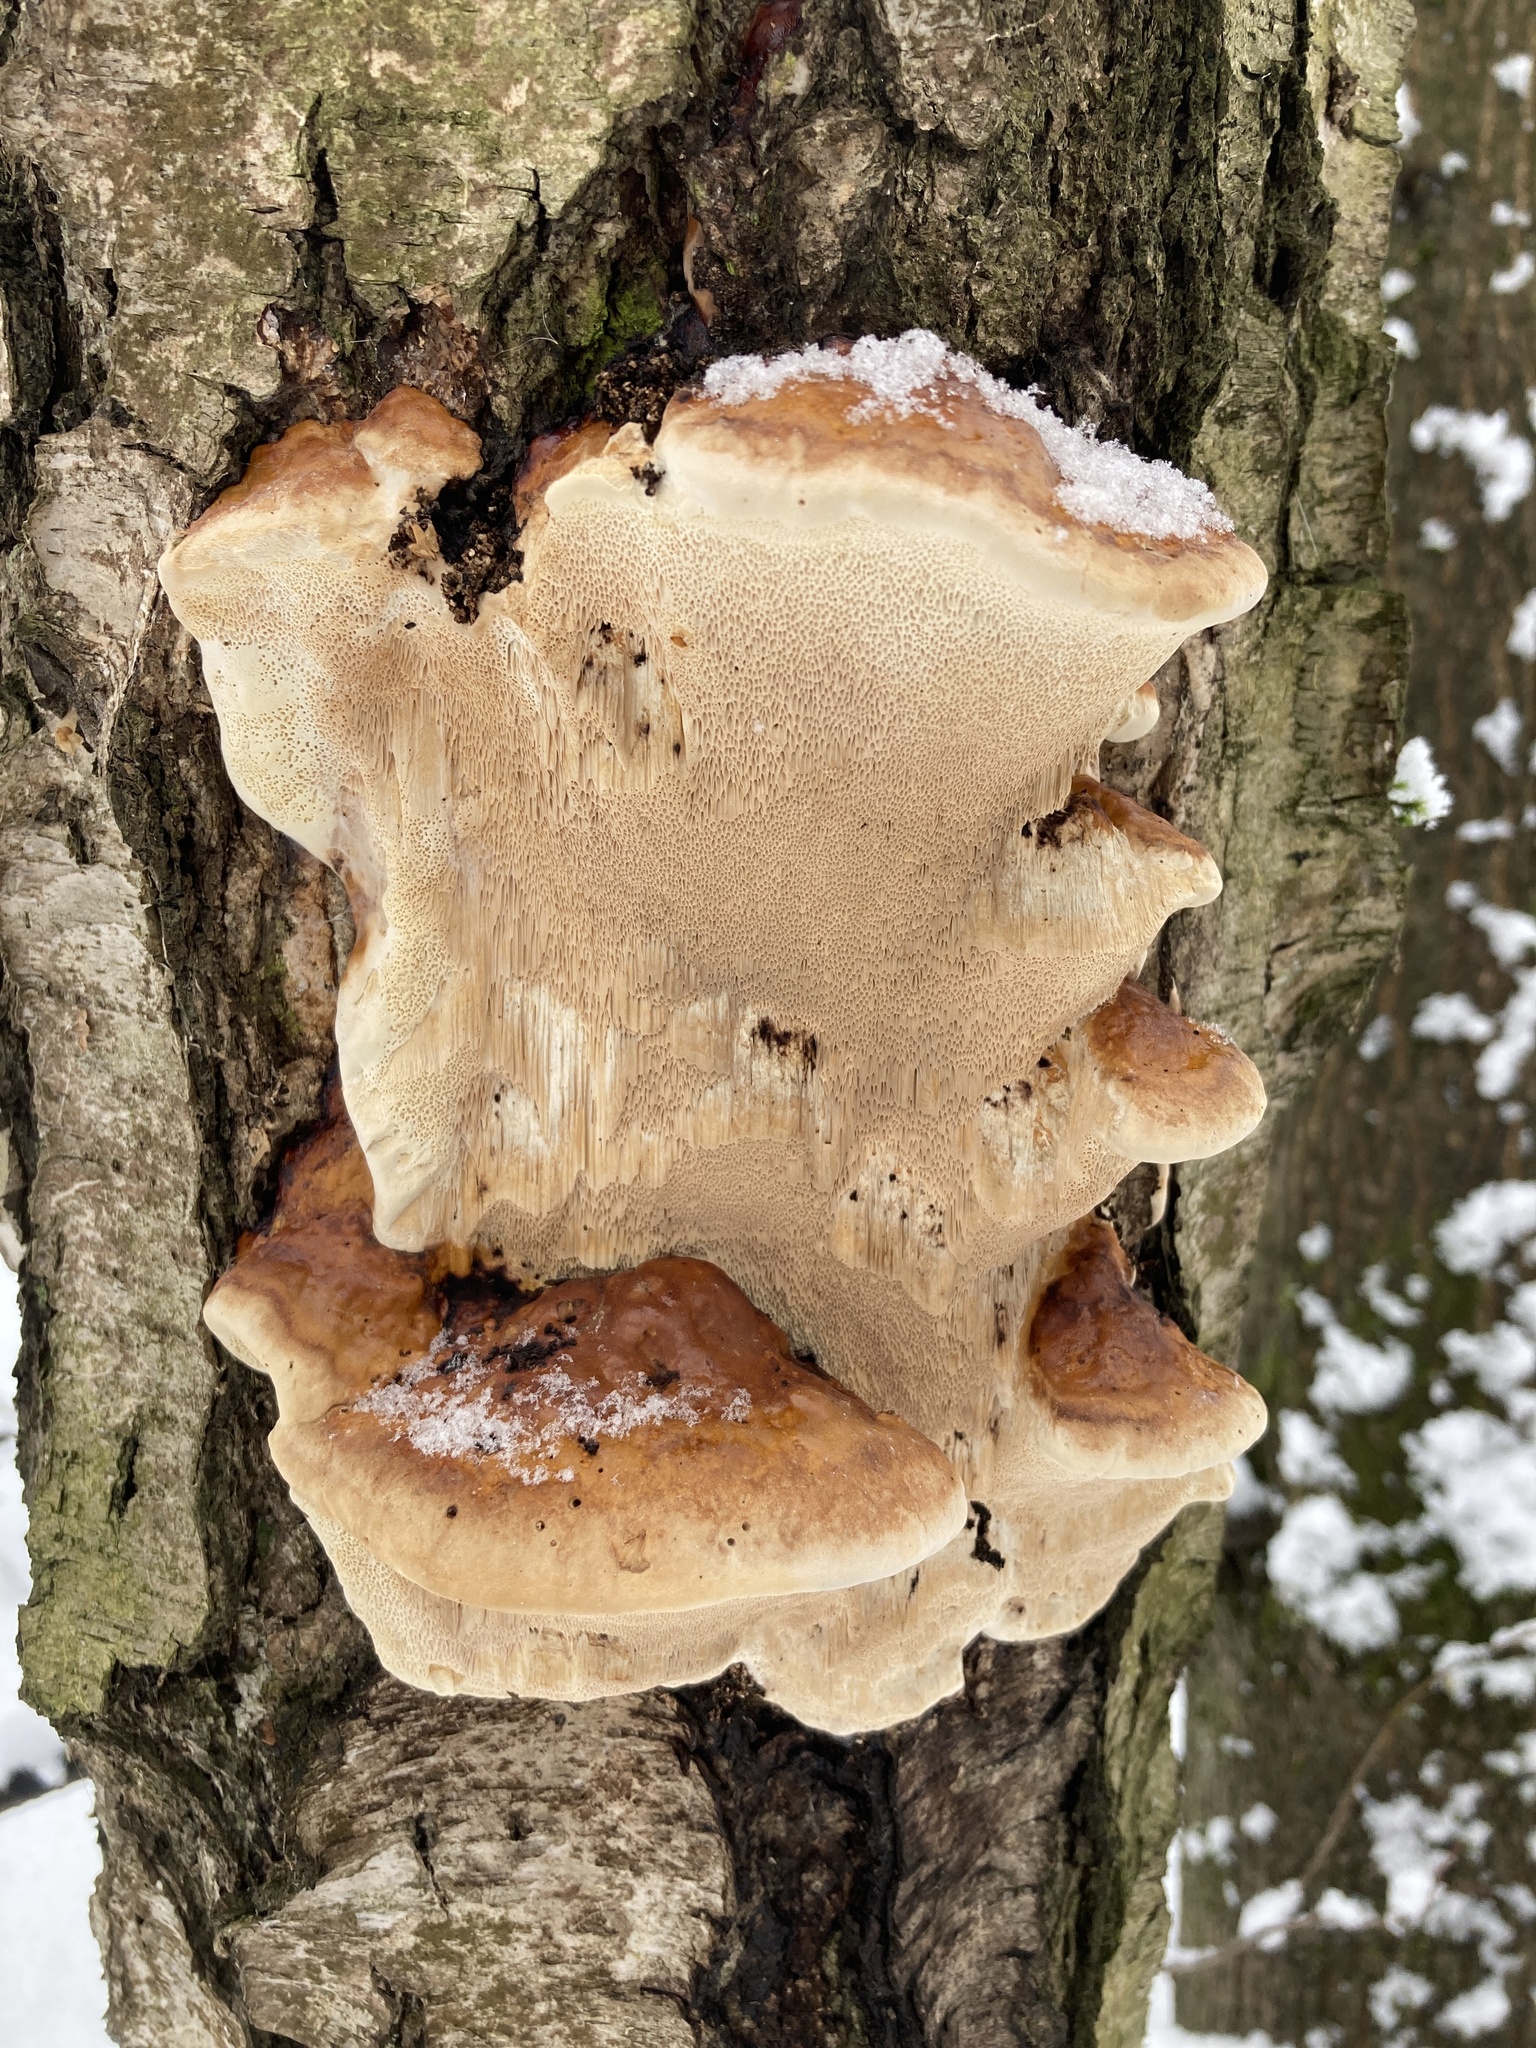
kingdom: Fungi
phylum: Basidiomycota
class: Agaricomycetes
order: Polyporales
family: Fomitopsidaceae
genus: Fomitopsis
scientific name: Fomitopsis pinicola
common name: Red-belted bracket
